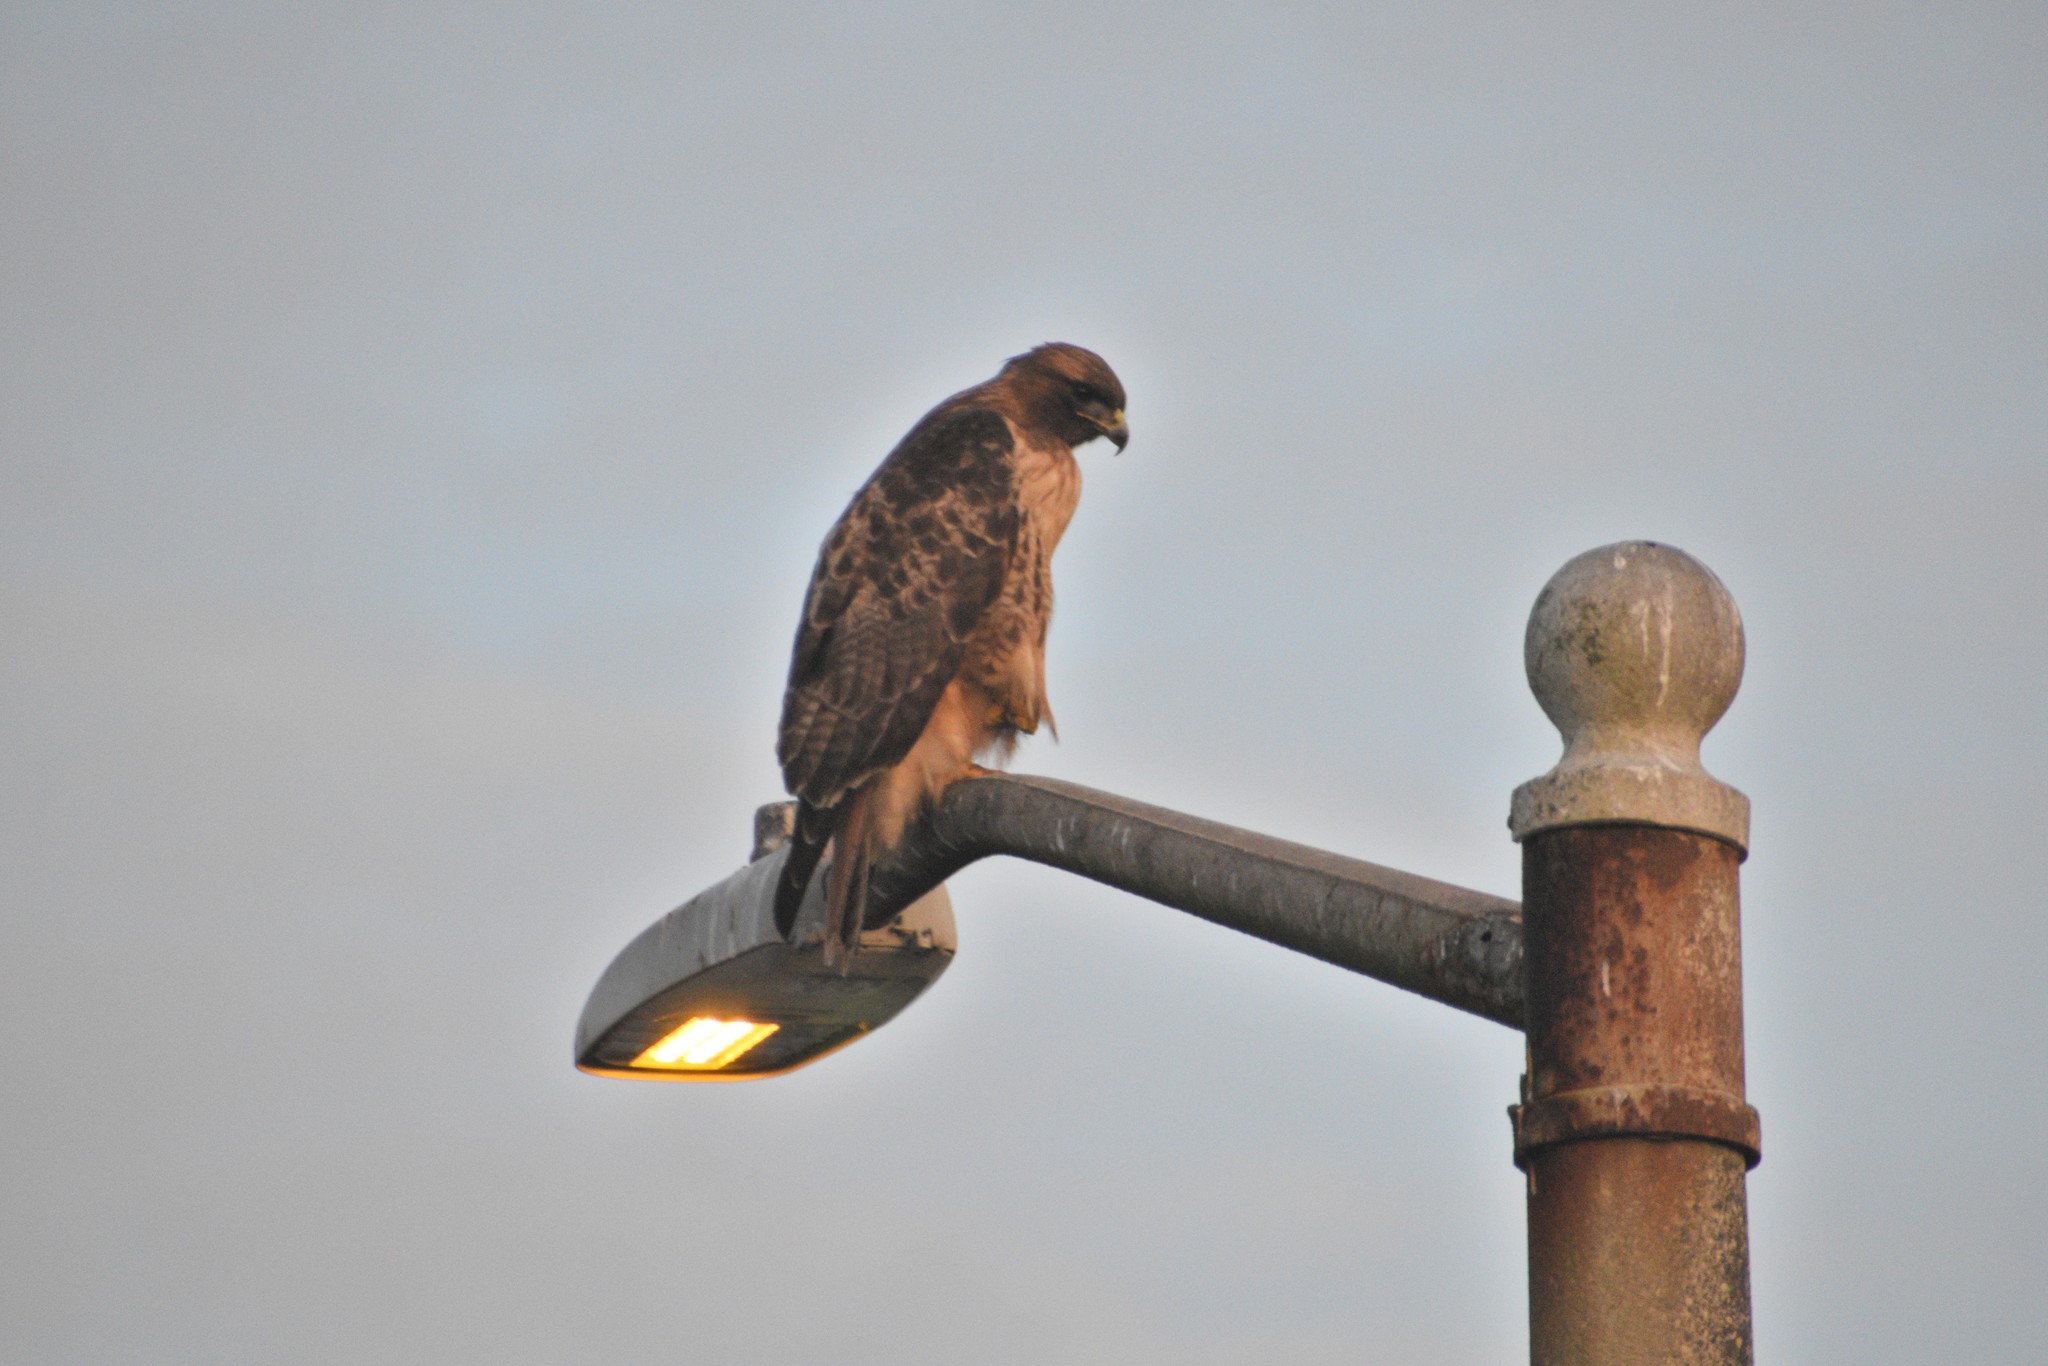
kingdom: Animalia
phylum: Chordata
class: Aves
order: Accipitriformes
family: Accipitridae
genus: Buteo
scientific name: Buteo jamaicensis
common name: Red-tailed hawk
